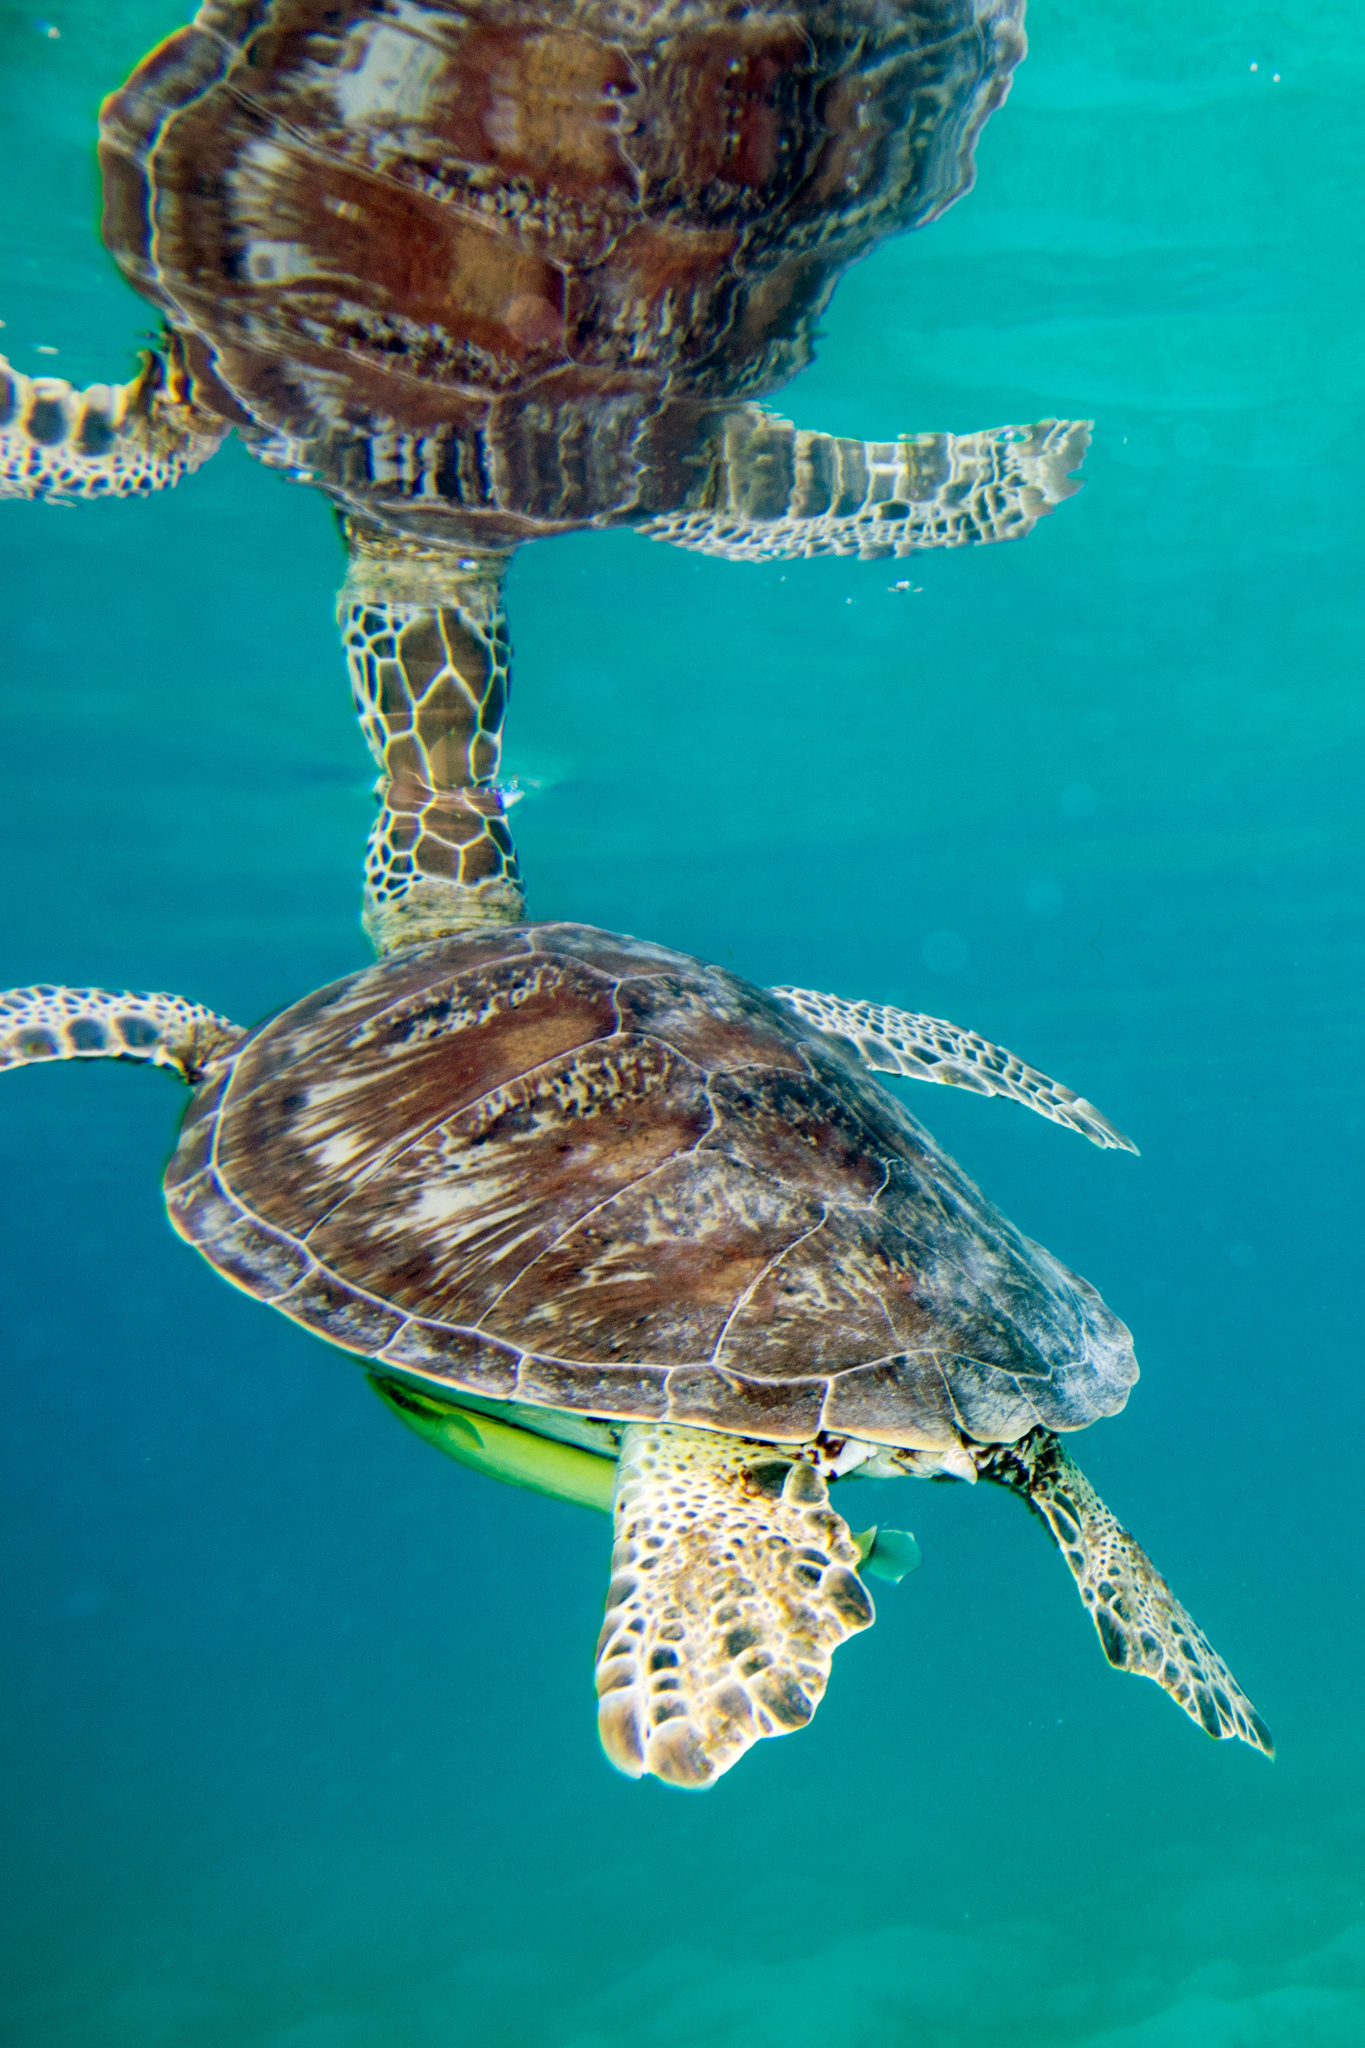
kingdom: Animalia
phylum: Chordata
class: Testudines
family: Cheloniidae
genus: Chelonia
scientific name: Chelonia mydas
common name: Green turtle
